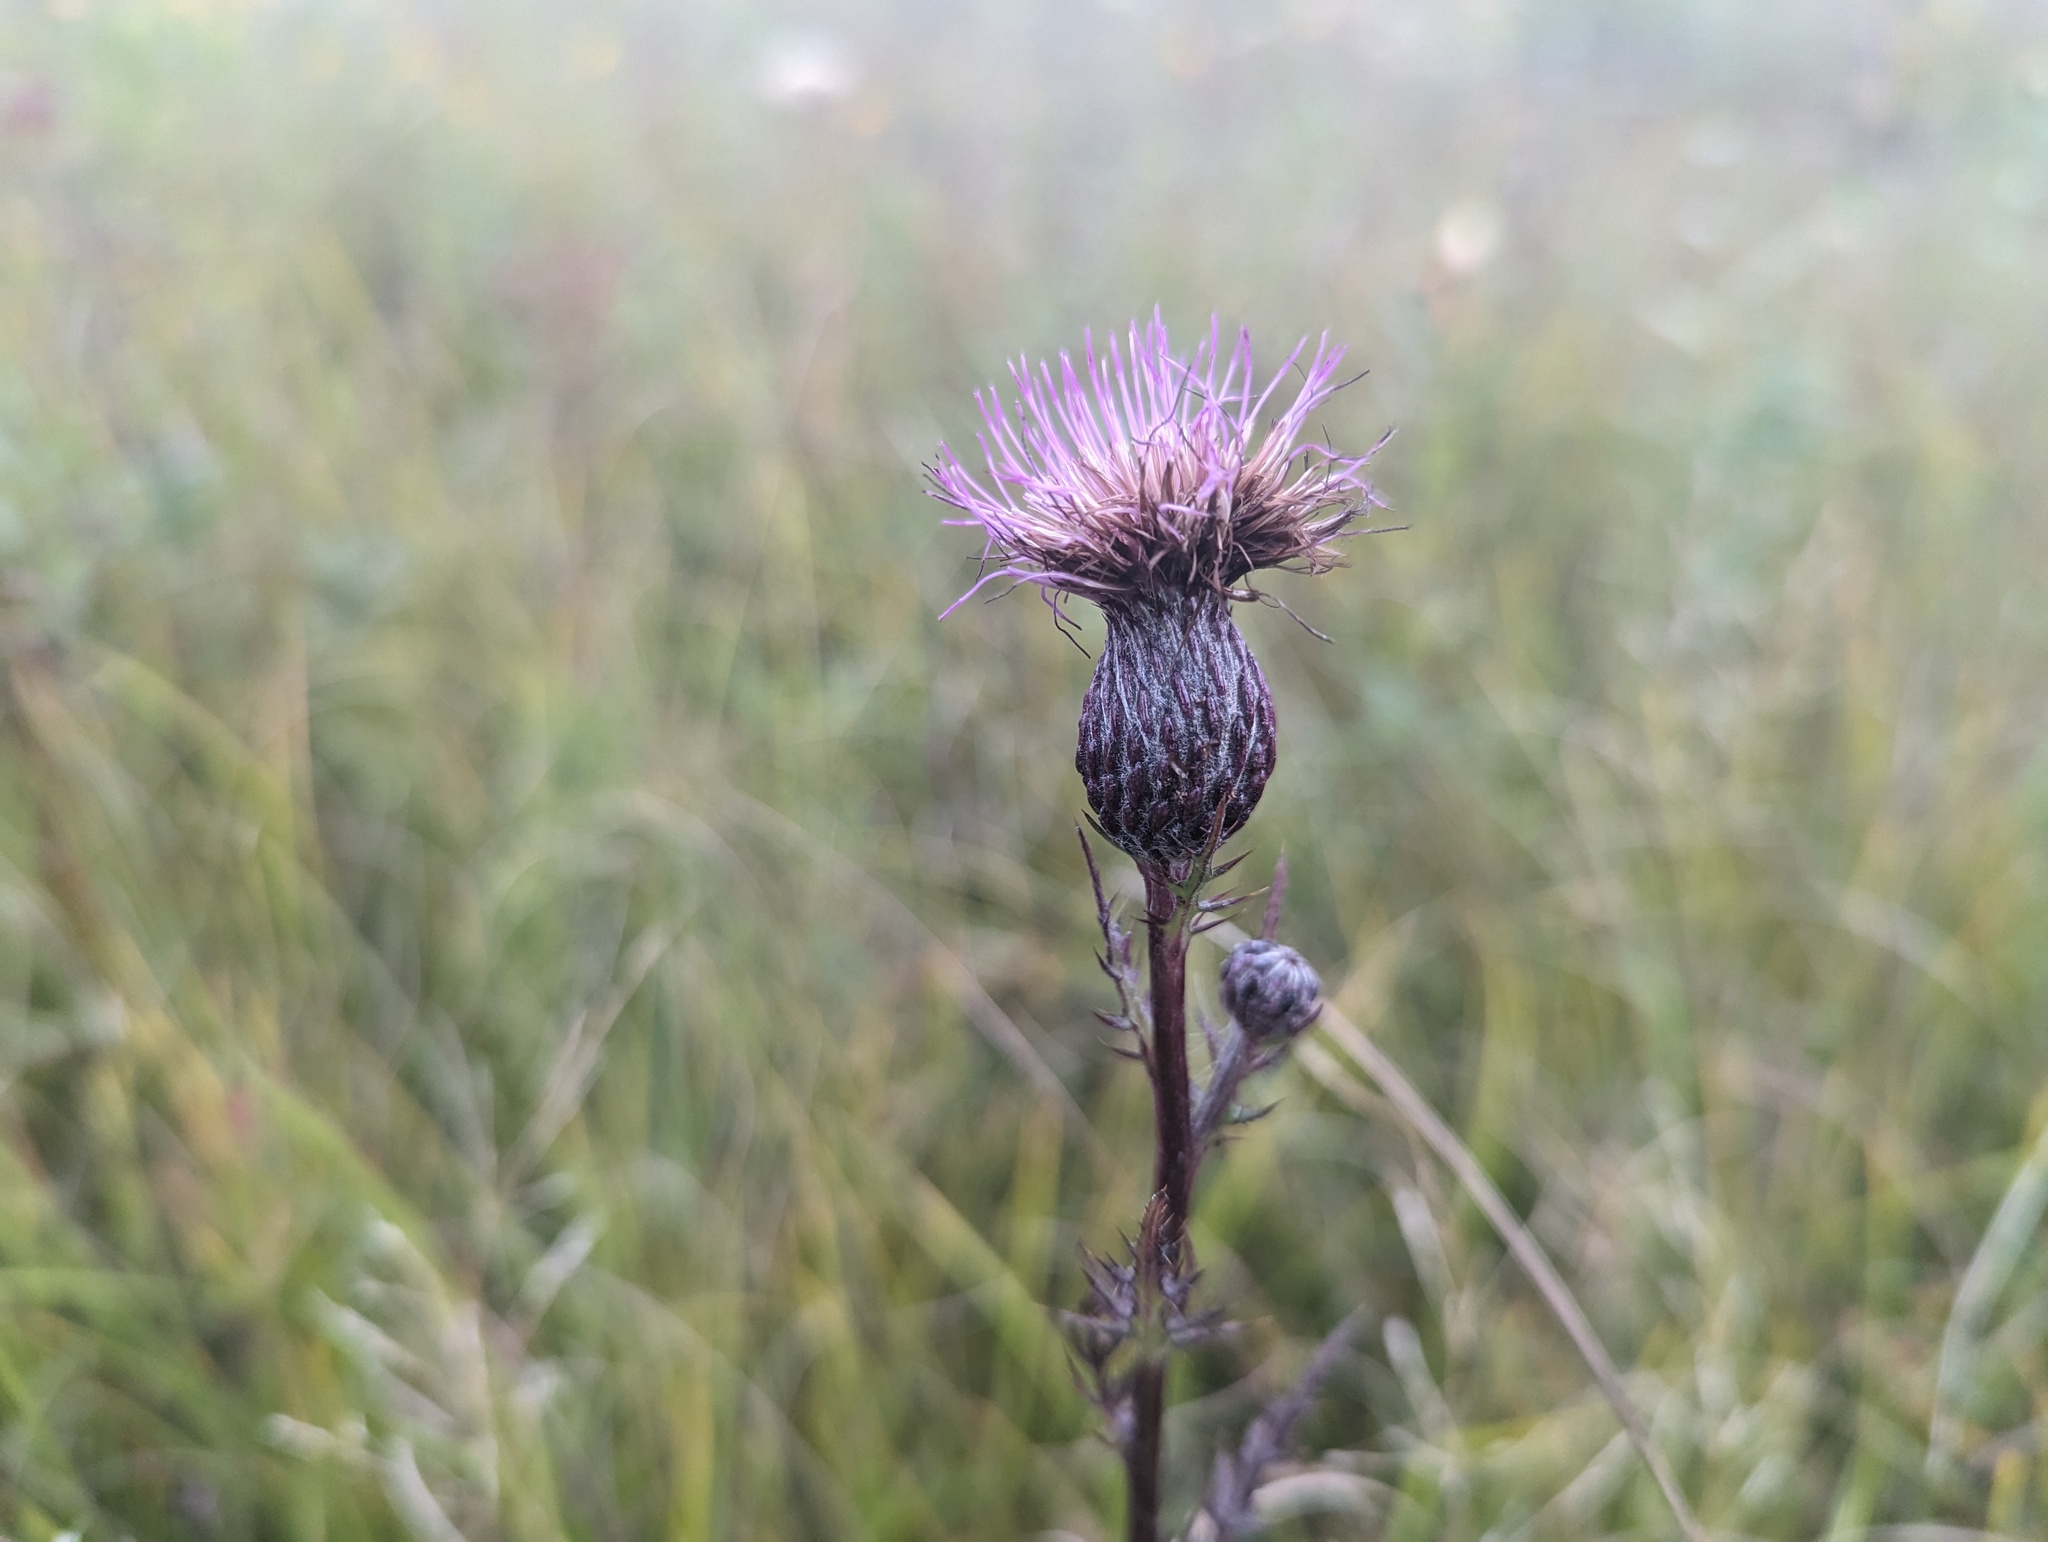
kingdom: Plantae
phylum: Tracheophyta
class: Magnoliopsida
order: Asterales
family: Asteraceae
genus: Cirsium
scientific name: Cirsium muticum
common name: Dunce-nettle
